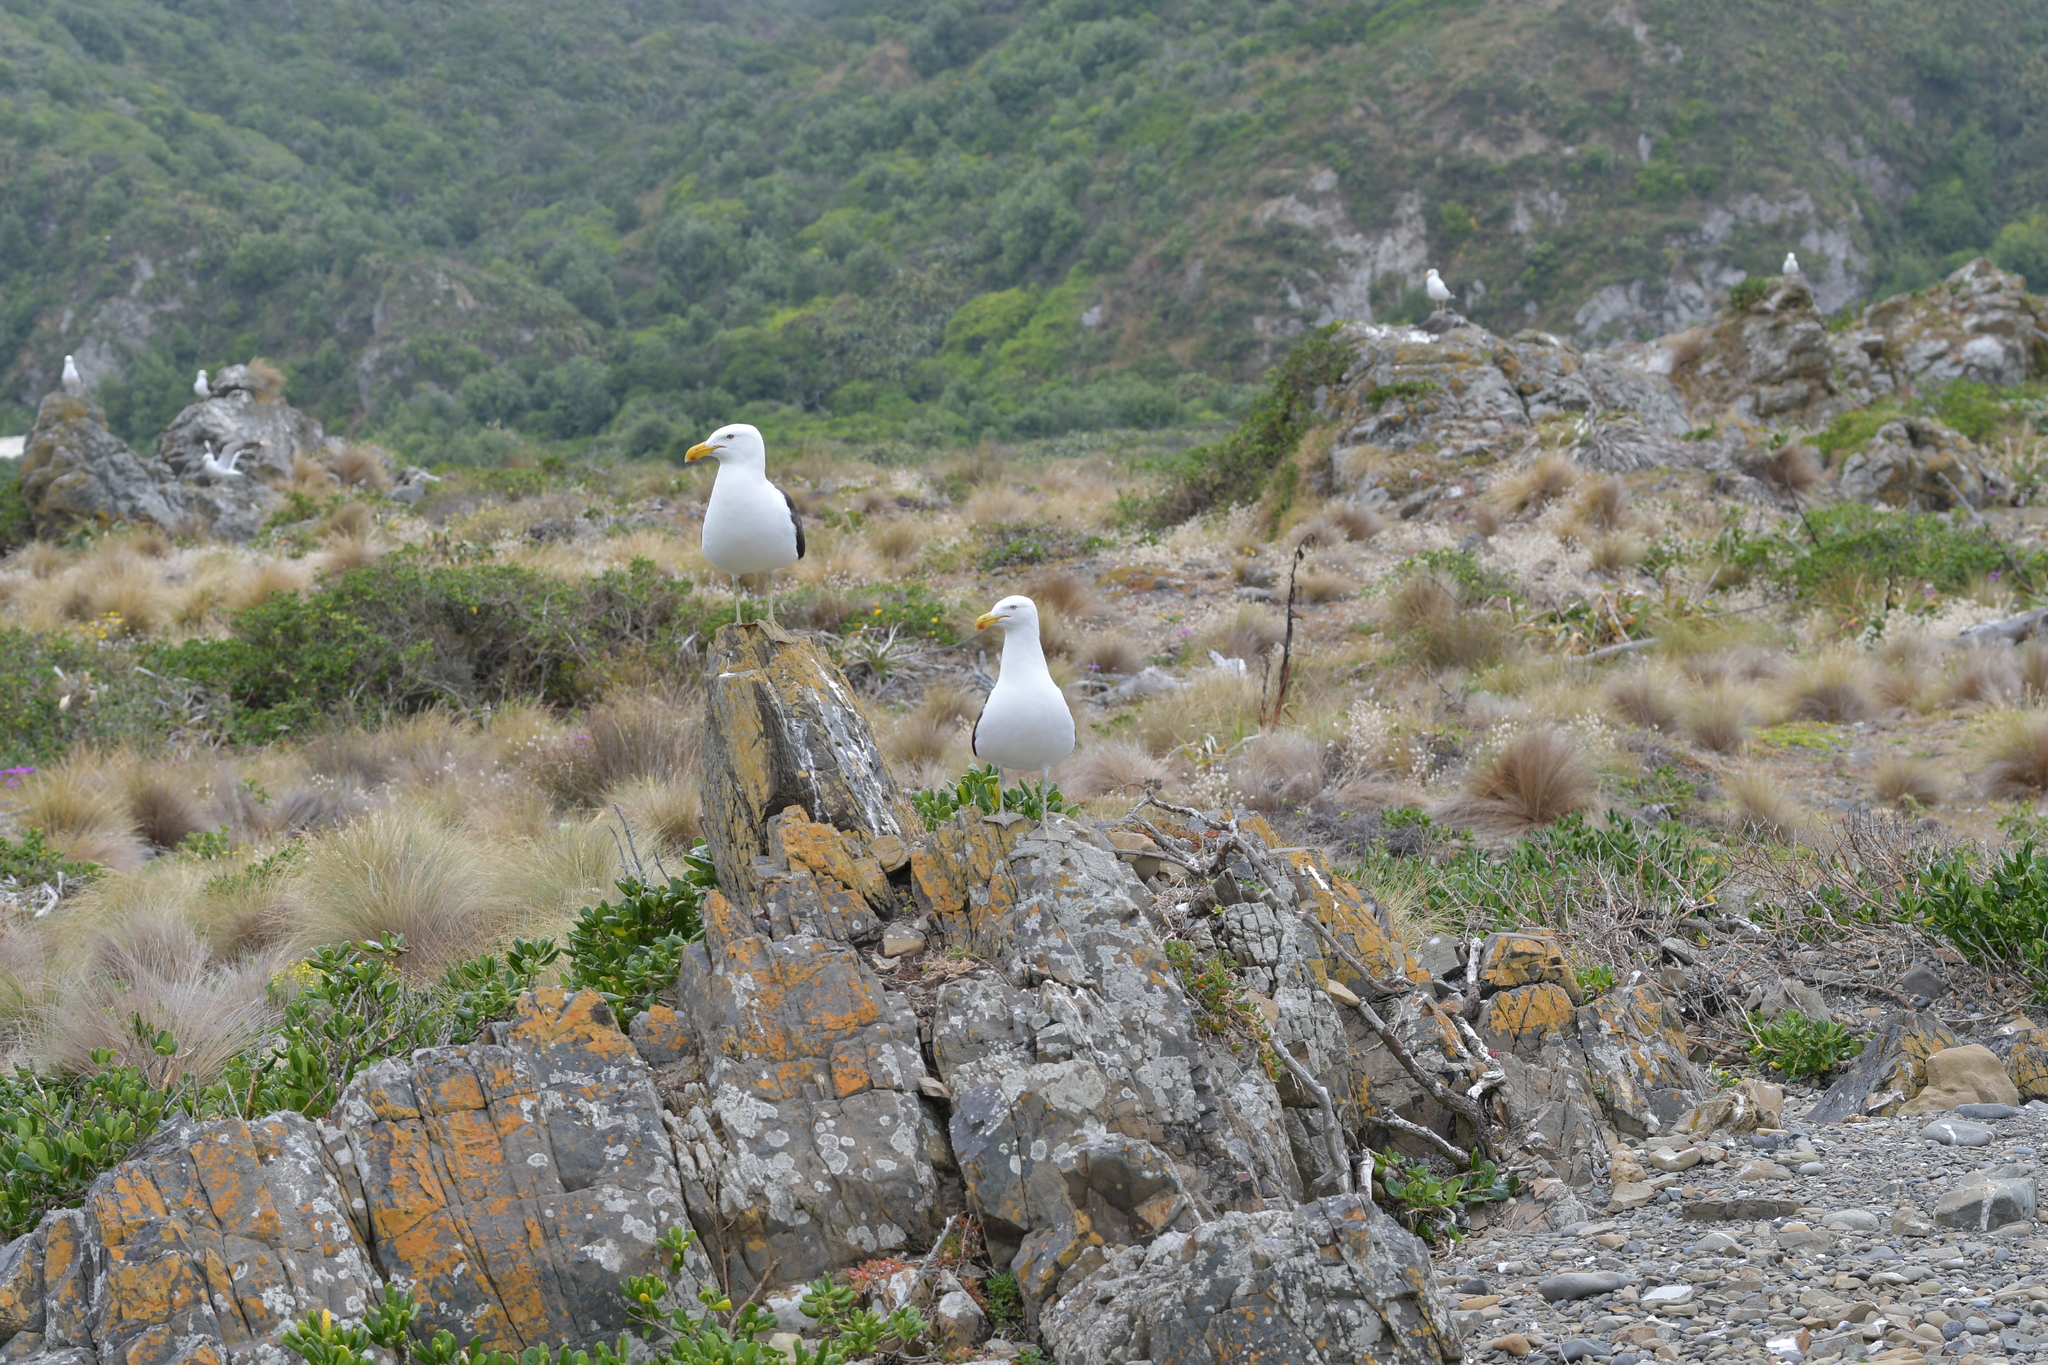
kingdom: Animalia
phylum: Chordata
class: Aves
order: Charadriiformes
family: Laridae
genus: Larus
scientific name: Larus dominicanus
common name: Kelp gull
